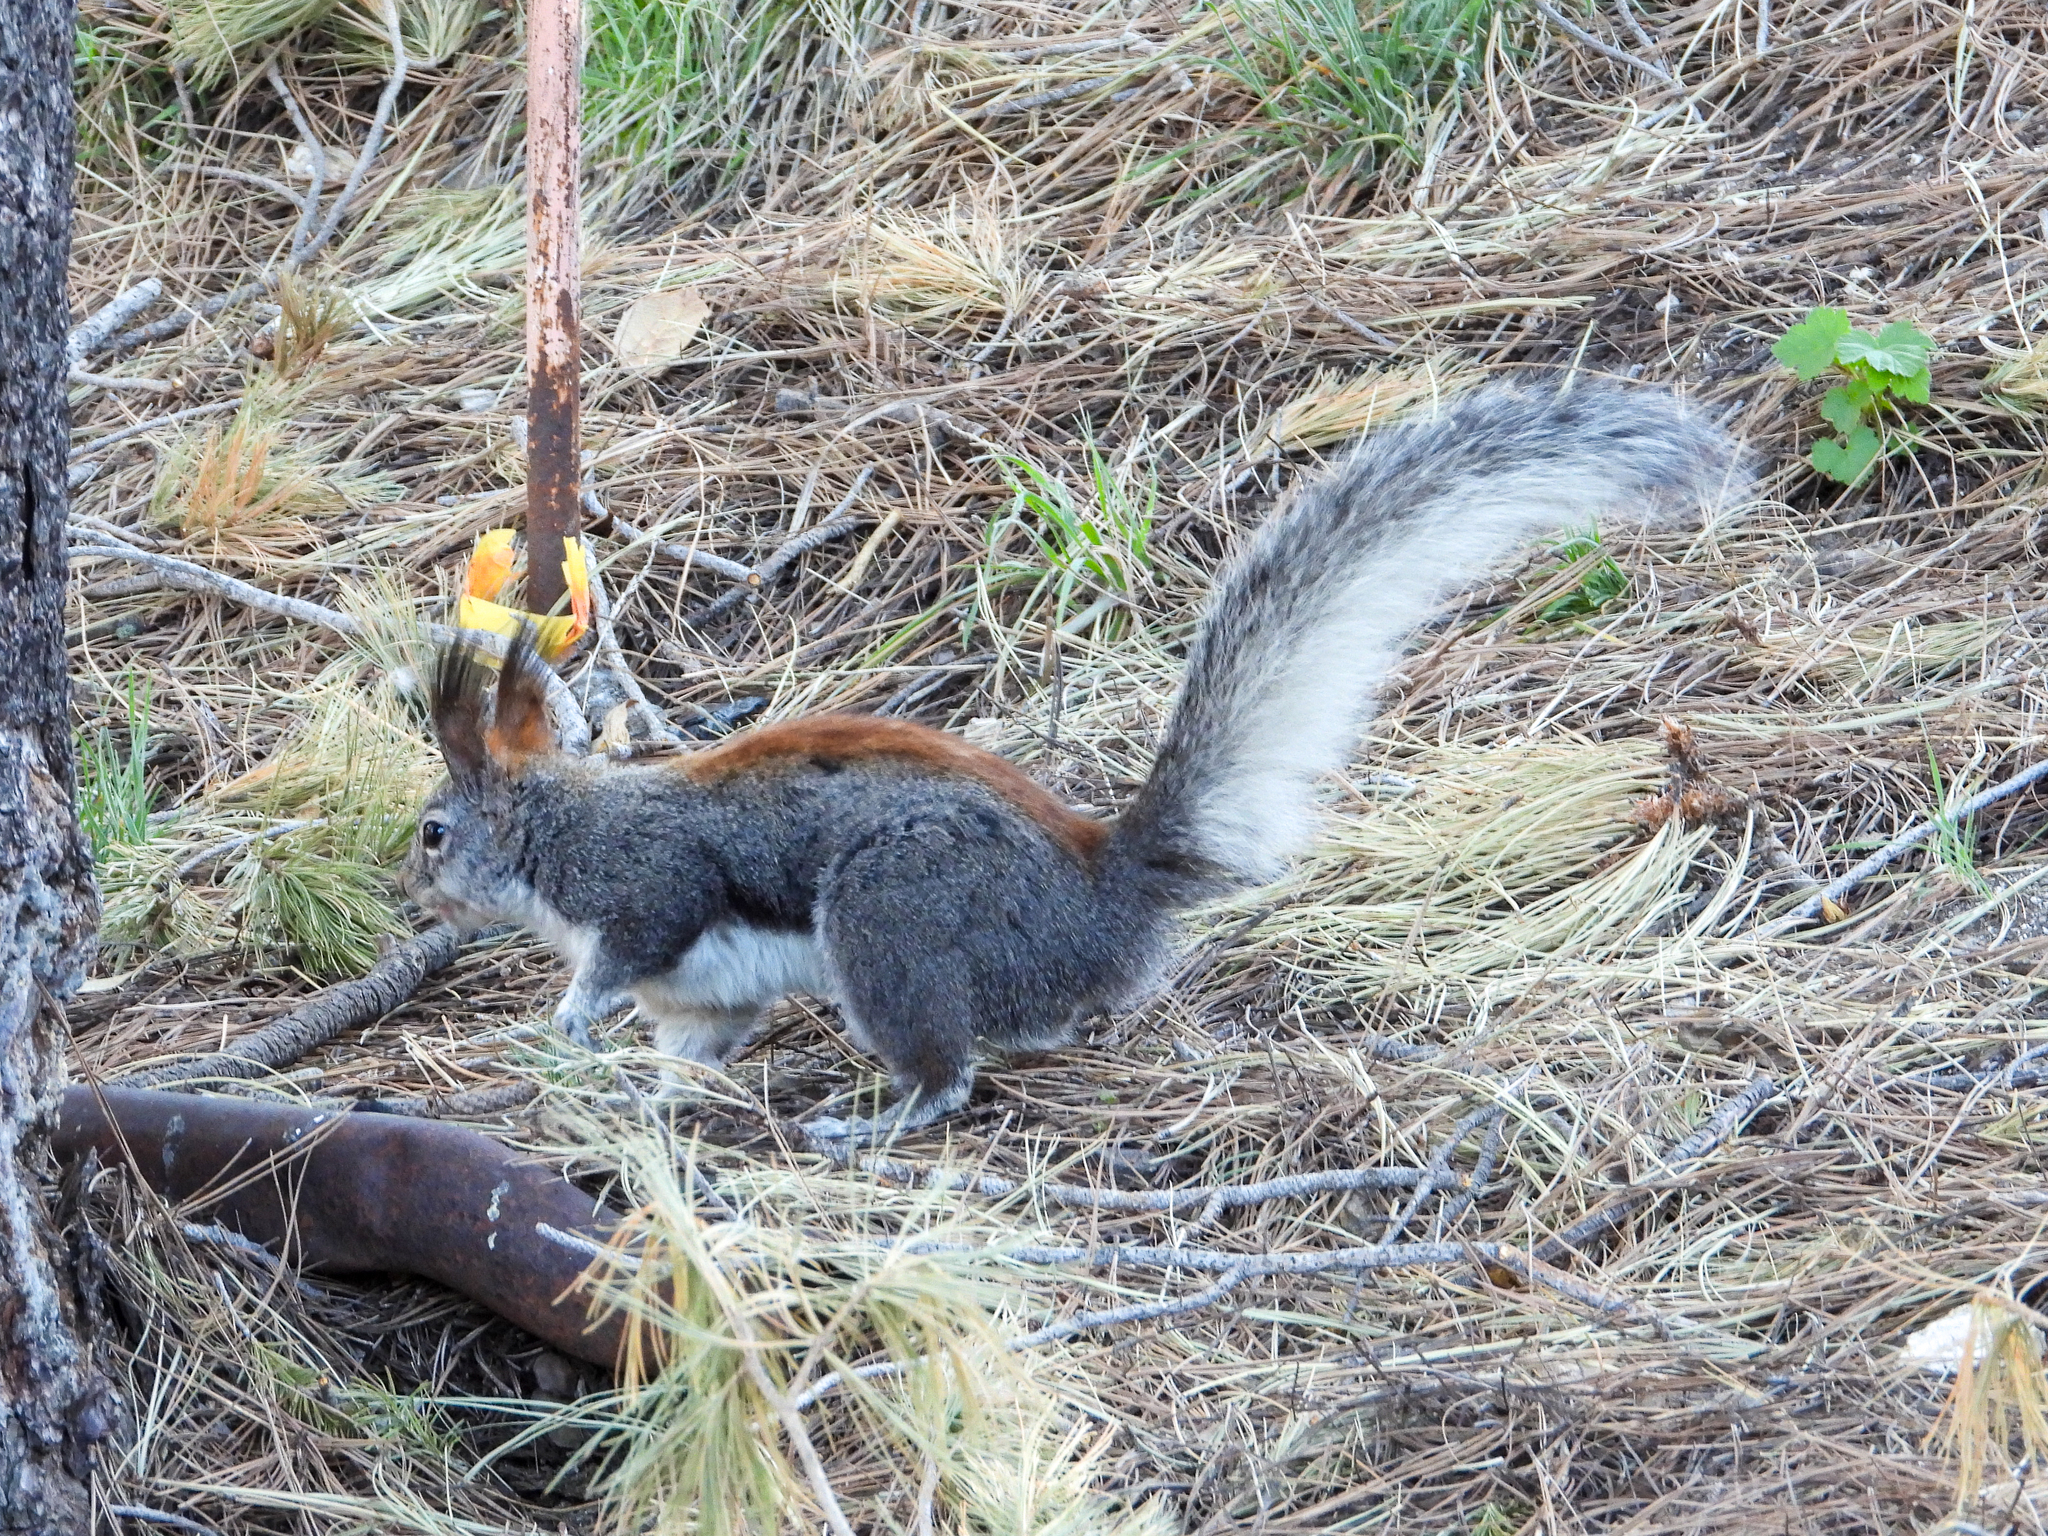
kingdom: Animalia
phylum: Chordata
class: Mammalia
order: Rodentia
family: Sciuridae
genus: Sciurus
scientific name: Sciurus aberti
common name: Abert's squirrel
